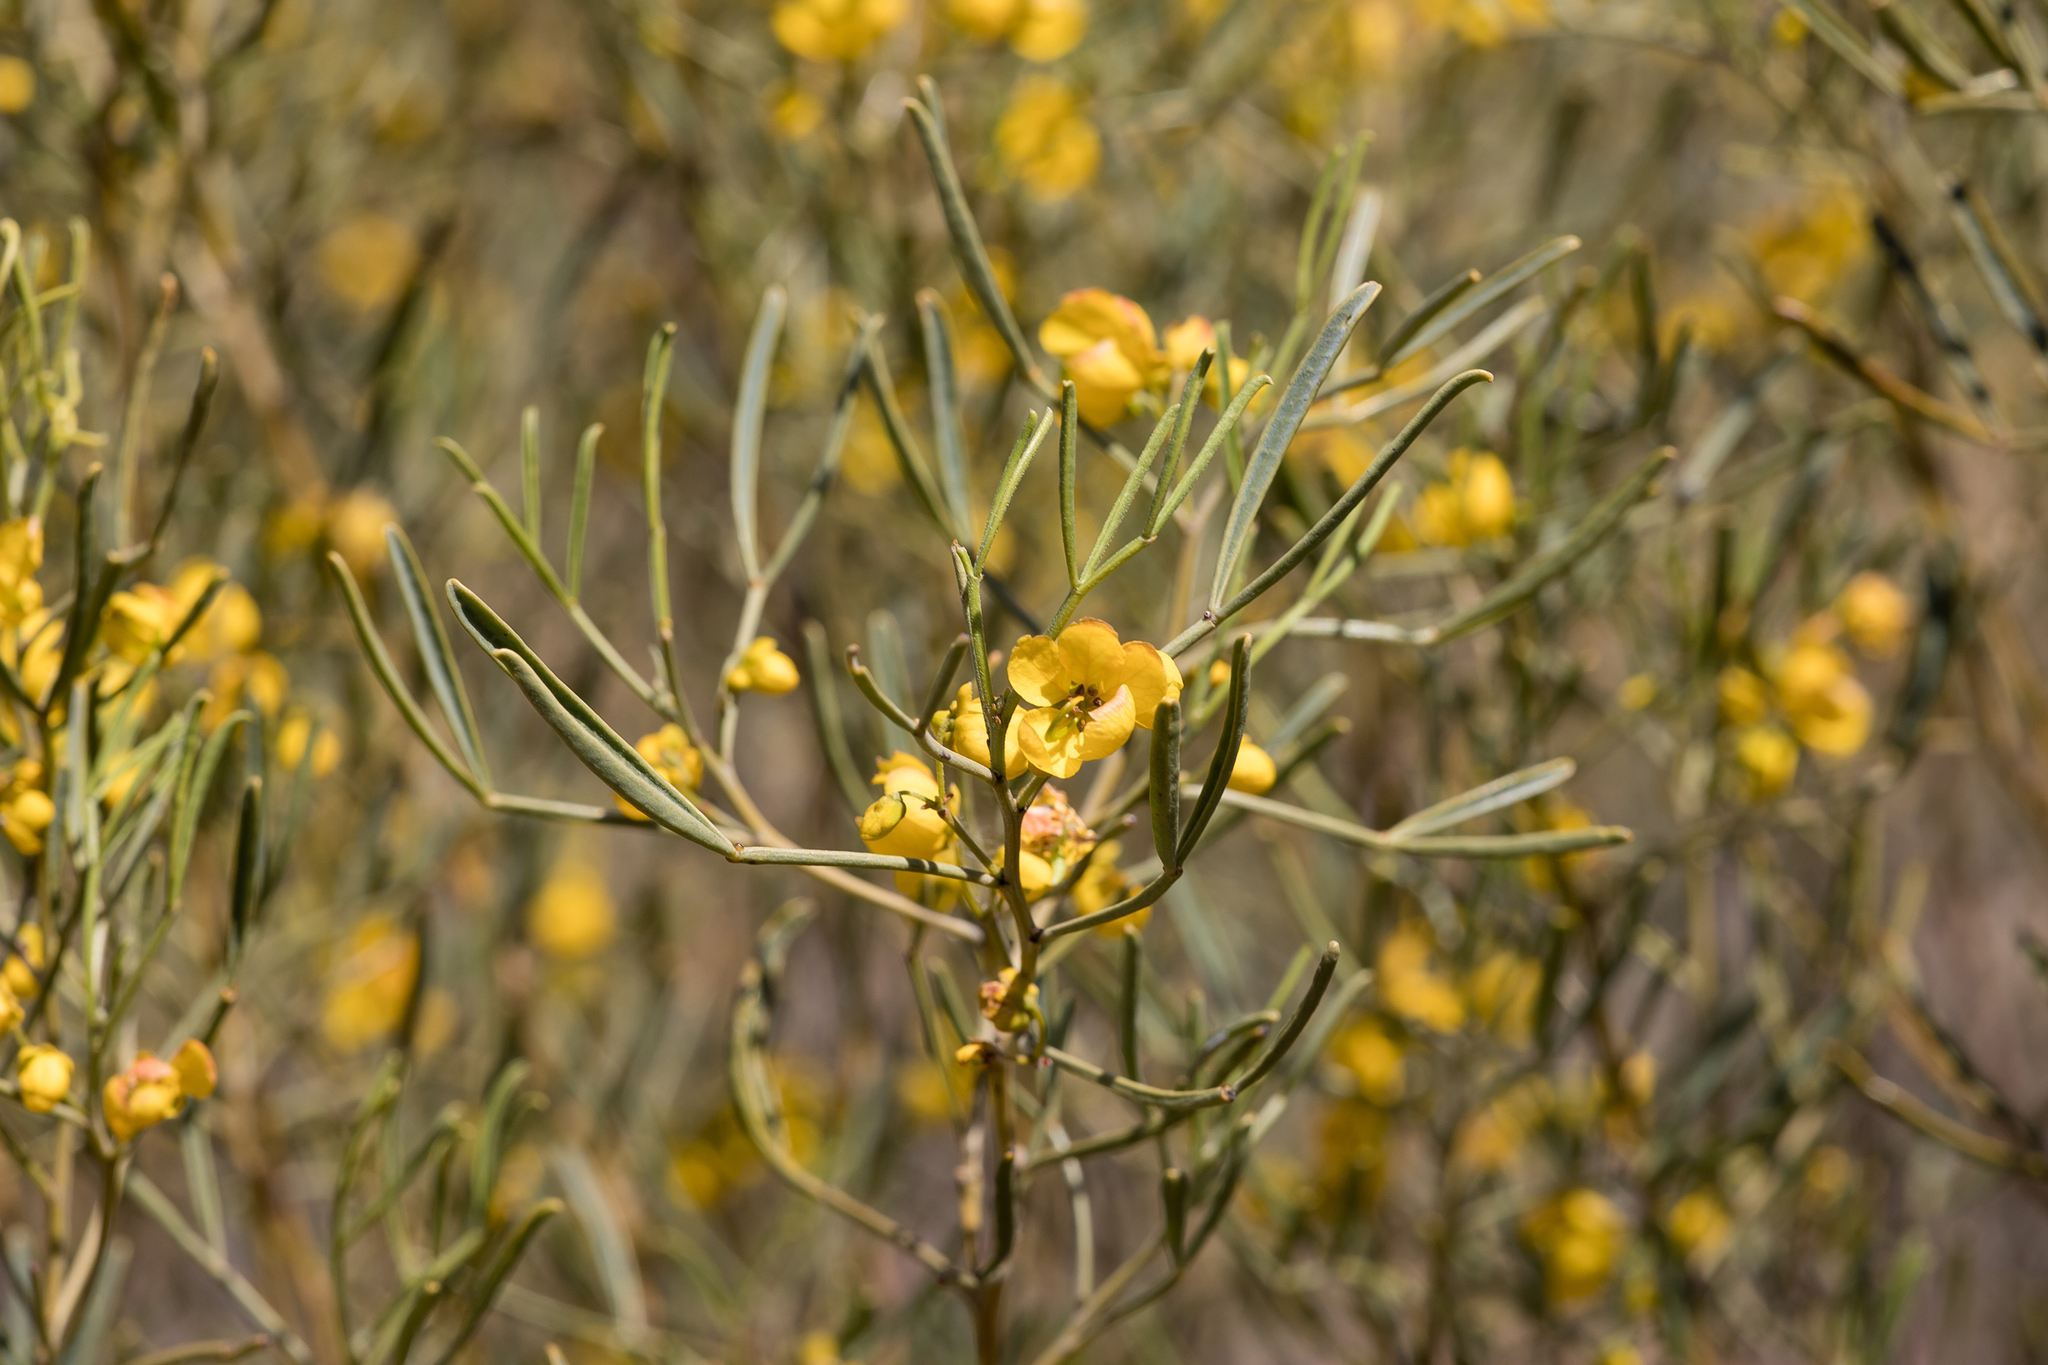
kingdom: Plantae
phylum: Tracheophyta
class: Magnoliopsida
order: Fabales
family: Fabaceae
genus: Senna
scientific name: Senna artemisioides
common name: Burnt-leaved acacia
